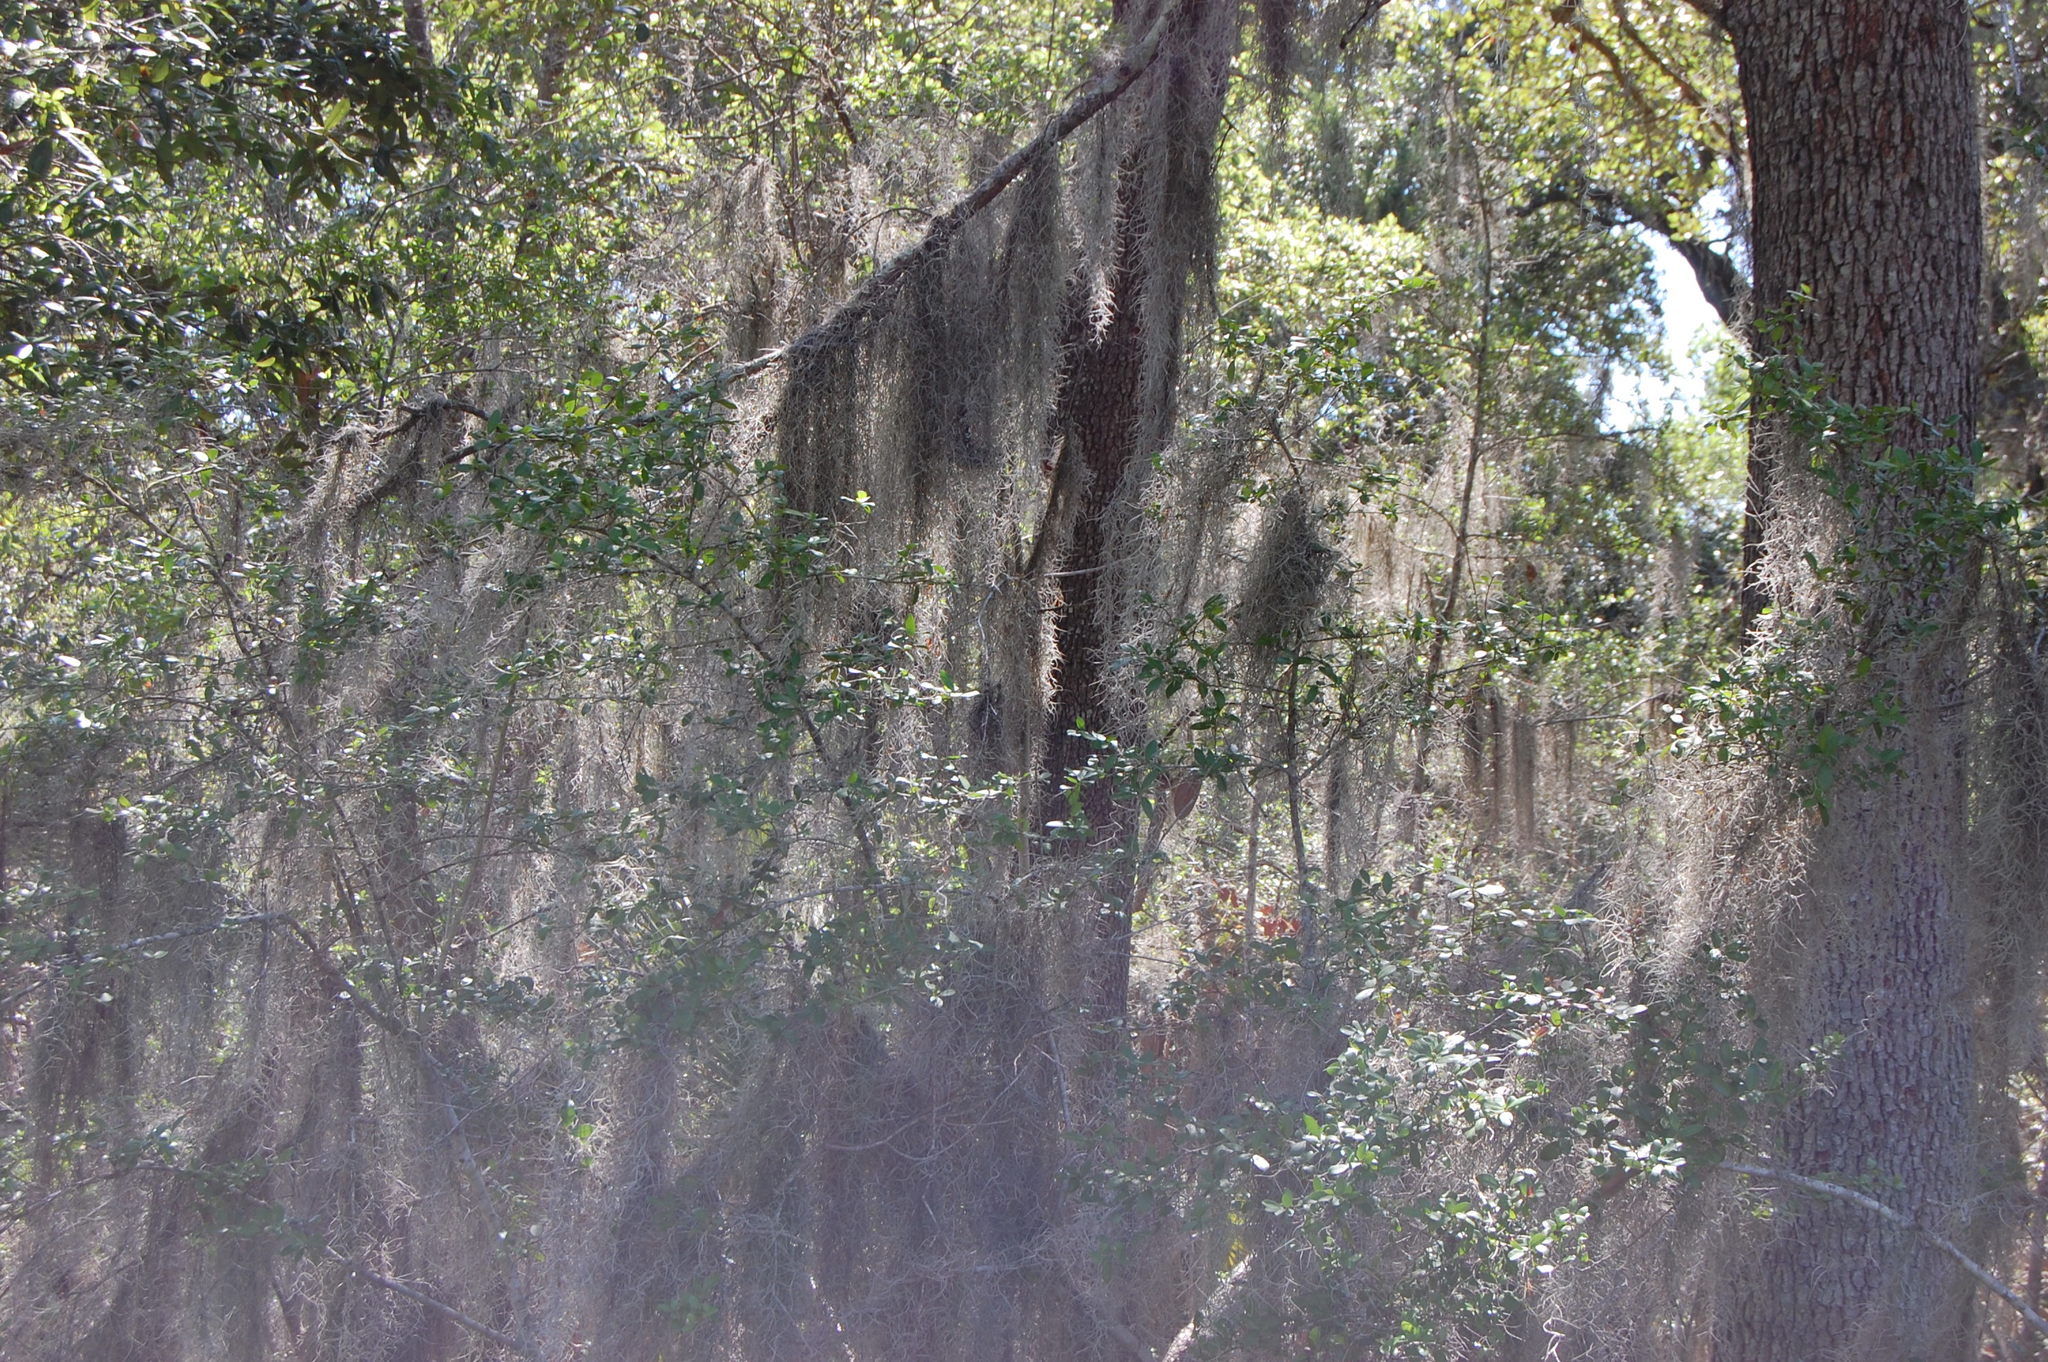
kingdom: Plantae
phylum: Tracheophyta
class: Liliopsida
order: Poales
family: Bromeliaceae
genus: Tillandsia
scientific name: Tillandsia usneoides
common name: Spanish moss
